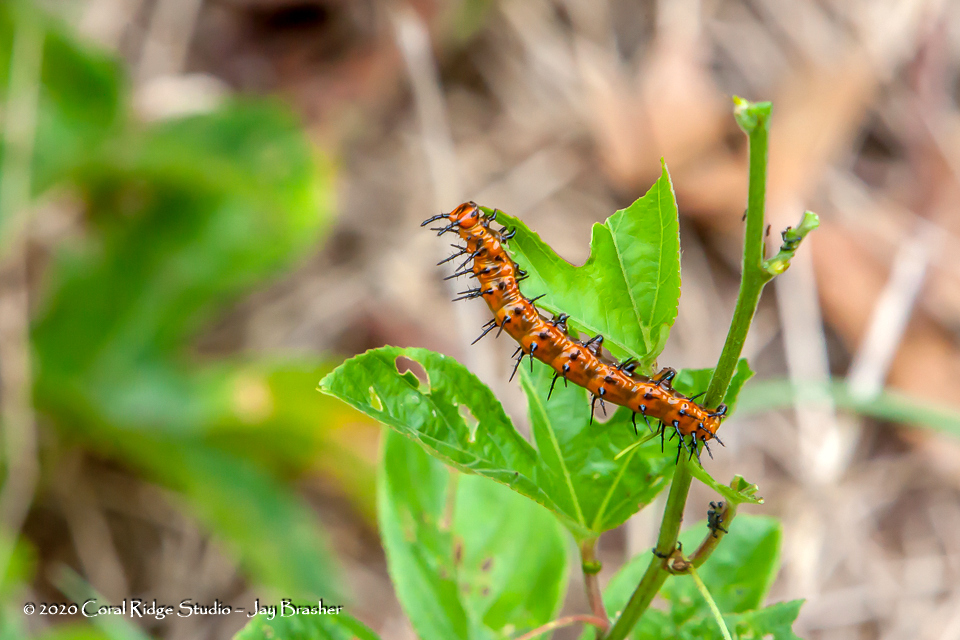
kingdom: Animalia
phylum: Arthropoda
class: Insecta
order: Lepidoptera
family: Nymphalidae
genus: Dione
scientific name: Dione vanillae
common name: Gulf fritillary
